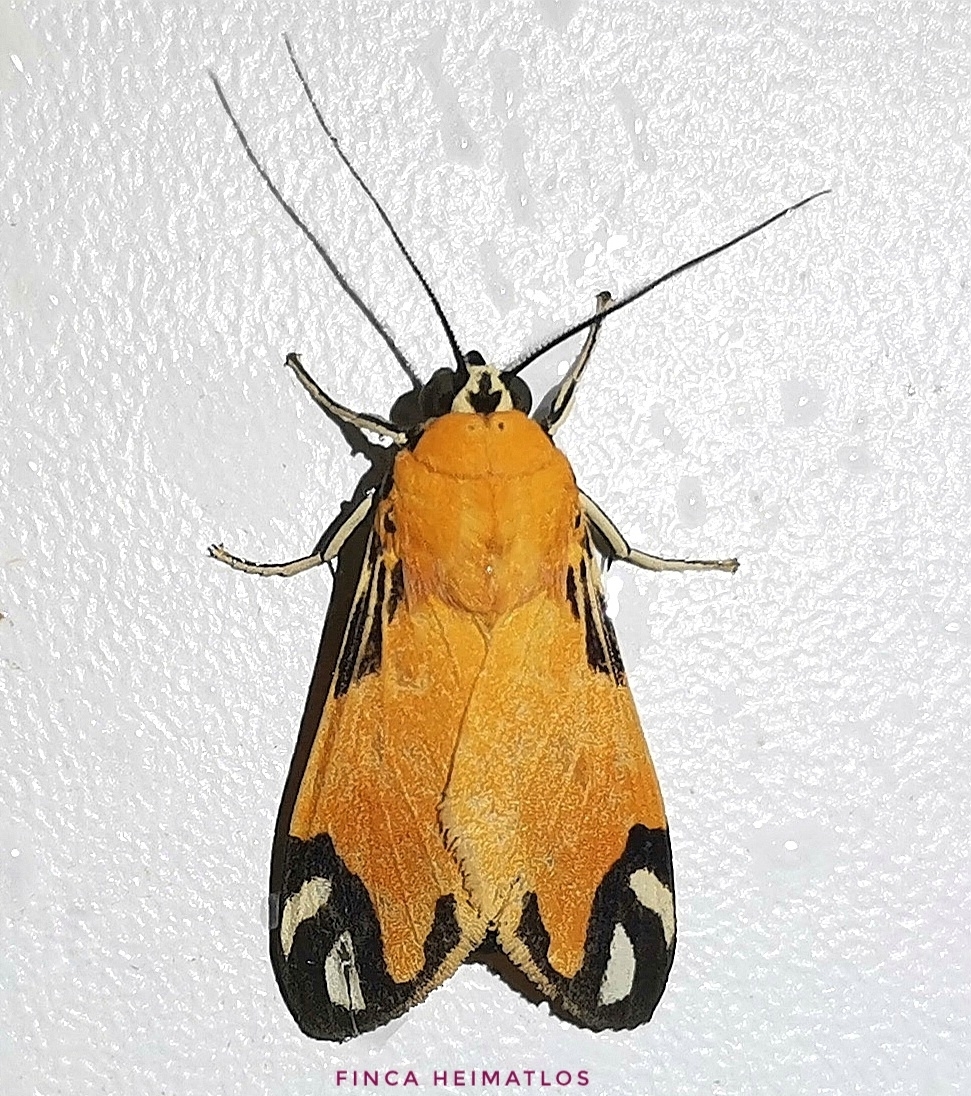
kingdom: Animalia
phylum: Arthropoda
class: Insecta
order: Lepidoptera
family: Erebidae
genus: Ormetica
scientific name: Ormetica zenzeroides
